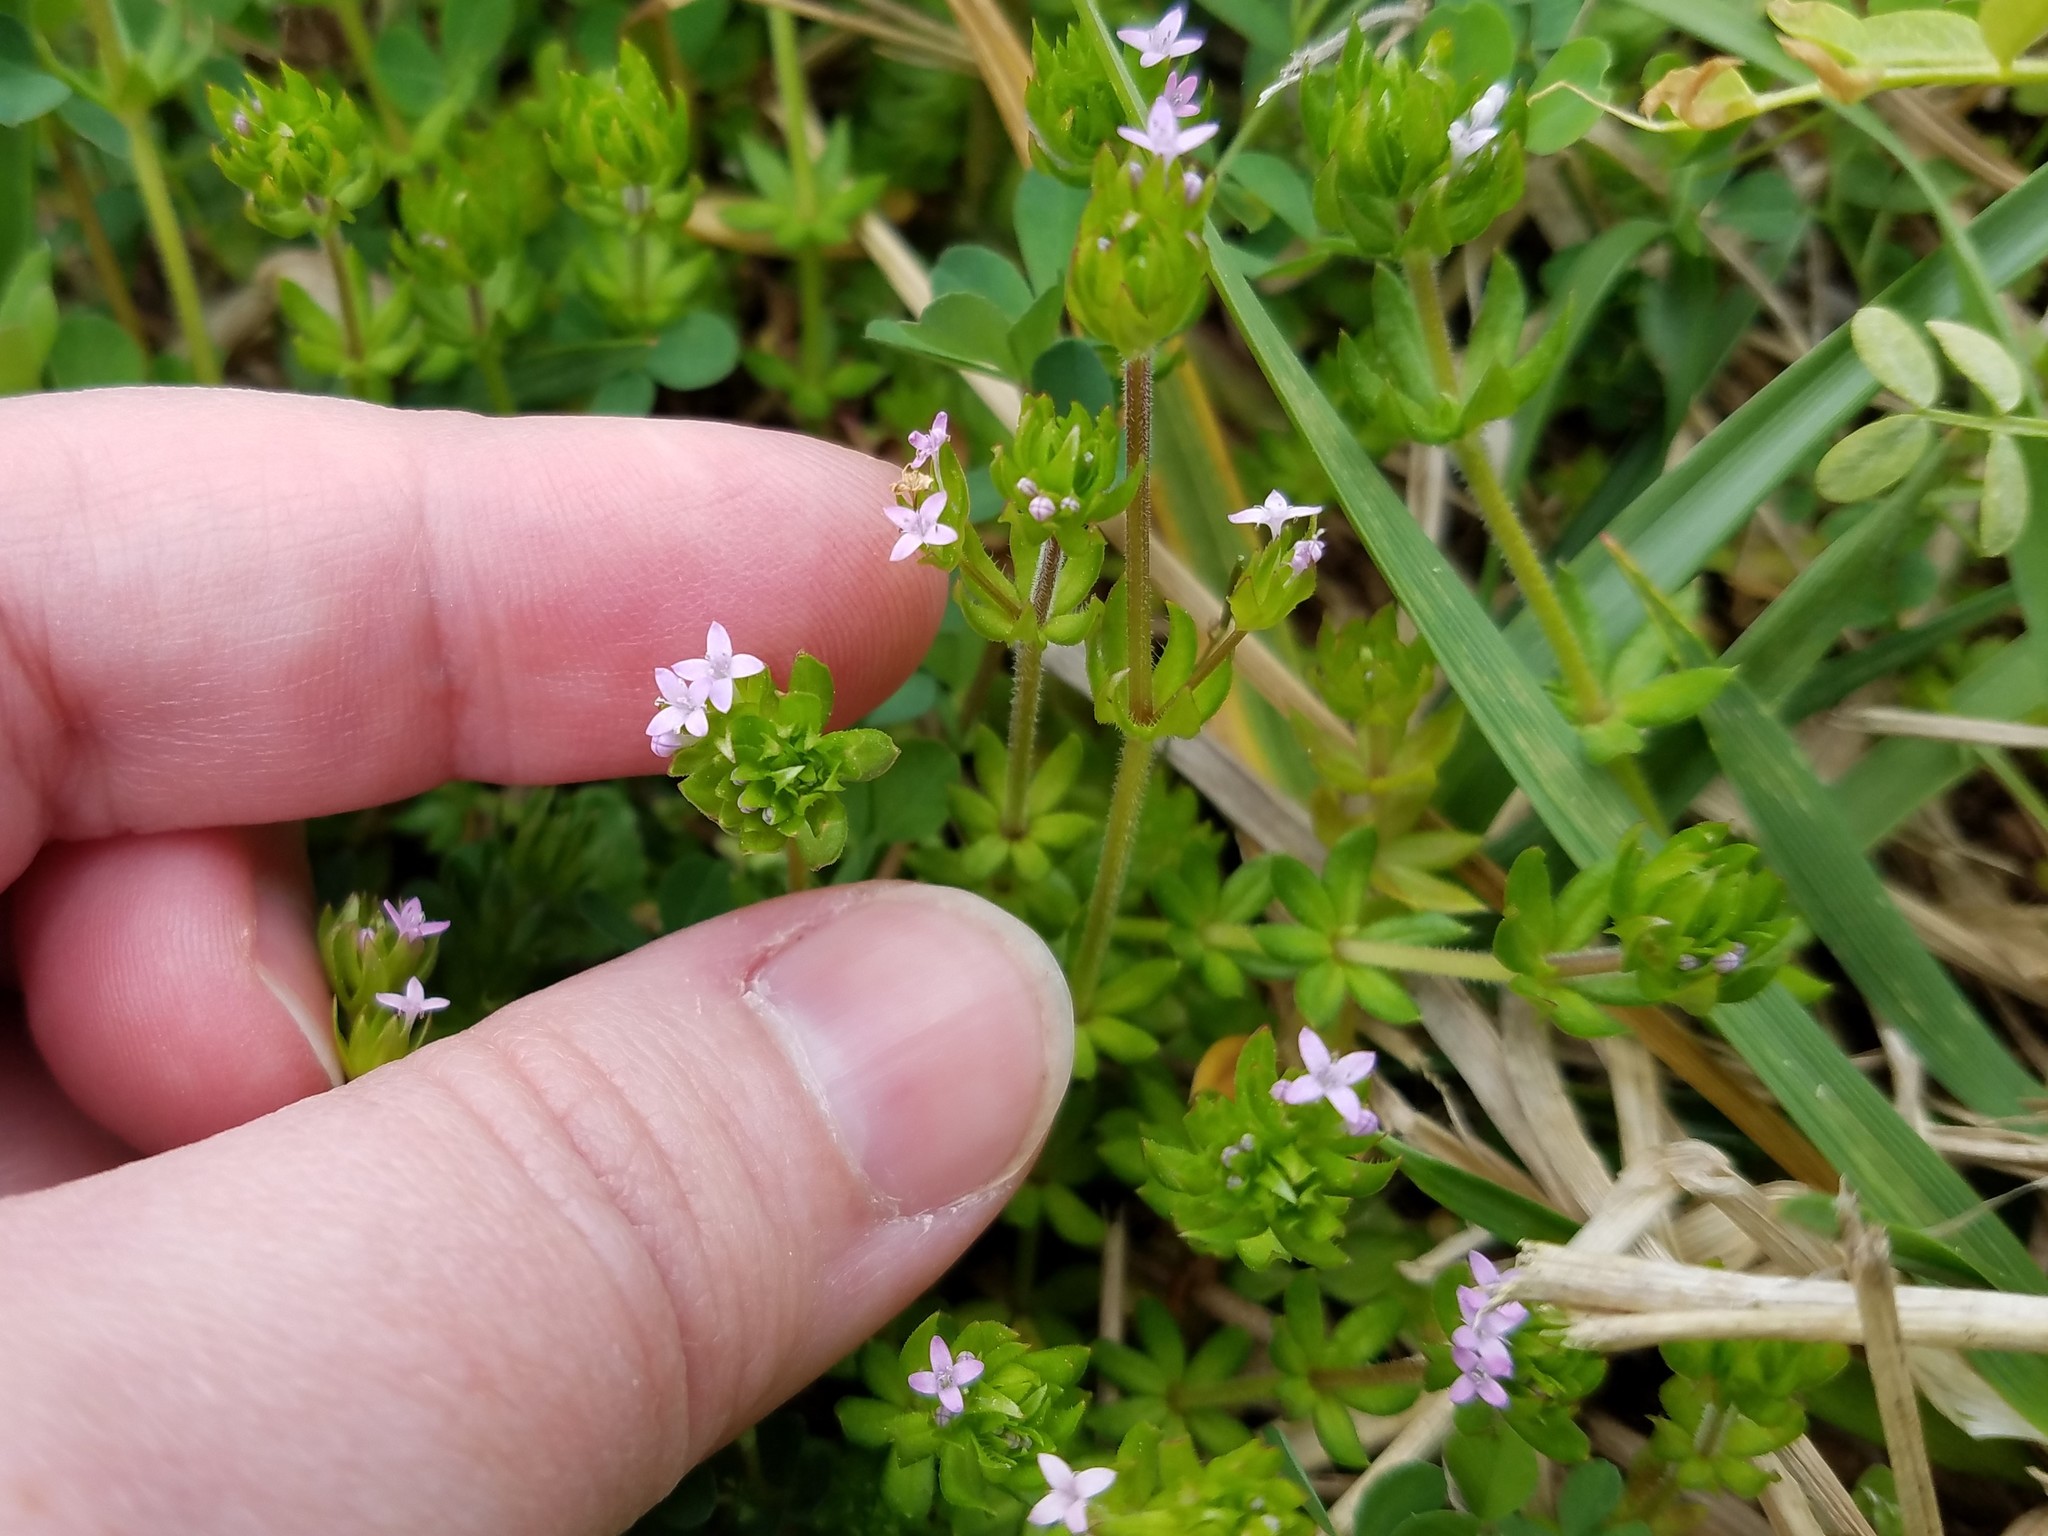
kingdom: Plantae
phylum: Tracheophyta
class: Magnoliopsida
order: Gentianales
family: Rubiaceae
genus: Sherardia
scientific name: Sherardia arvensis
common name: Field madder
